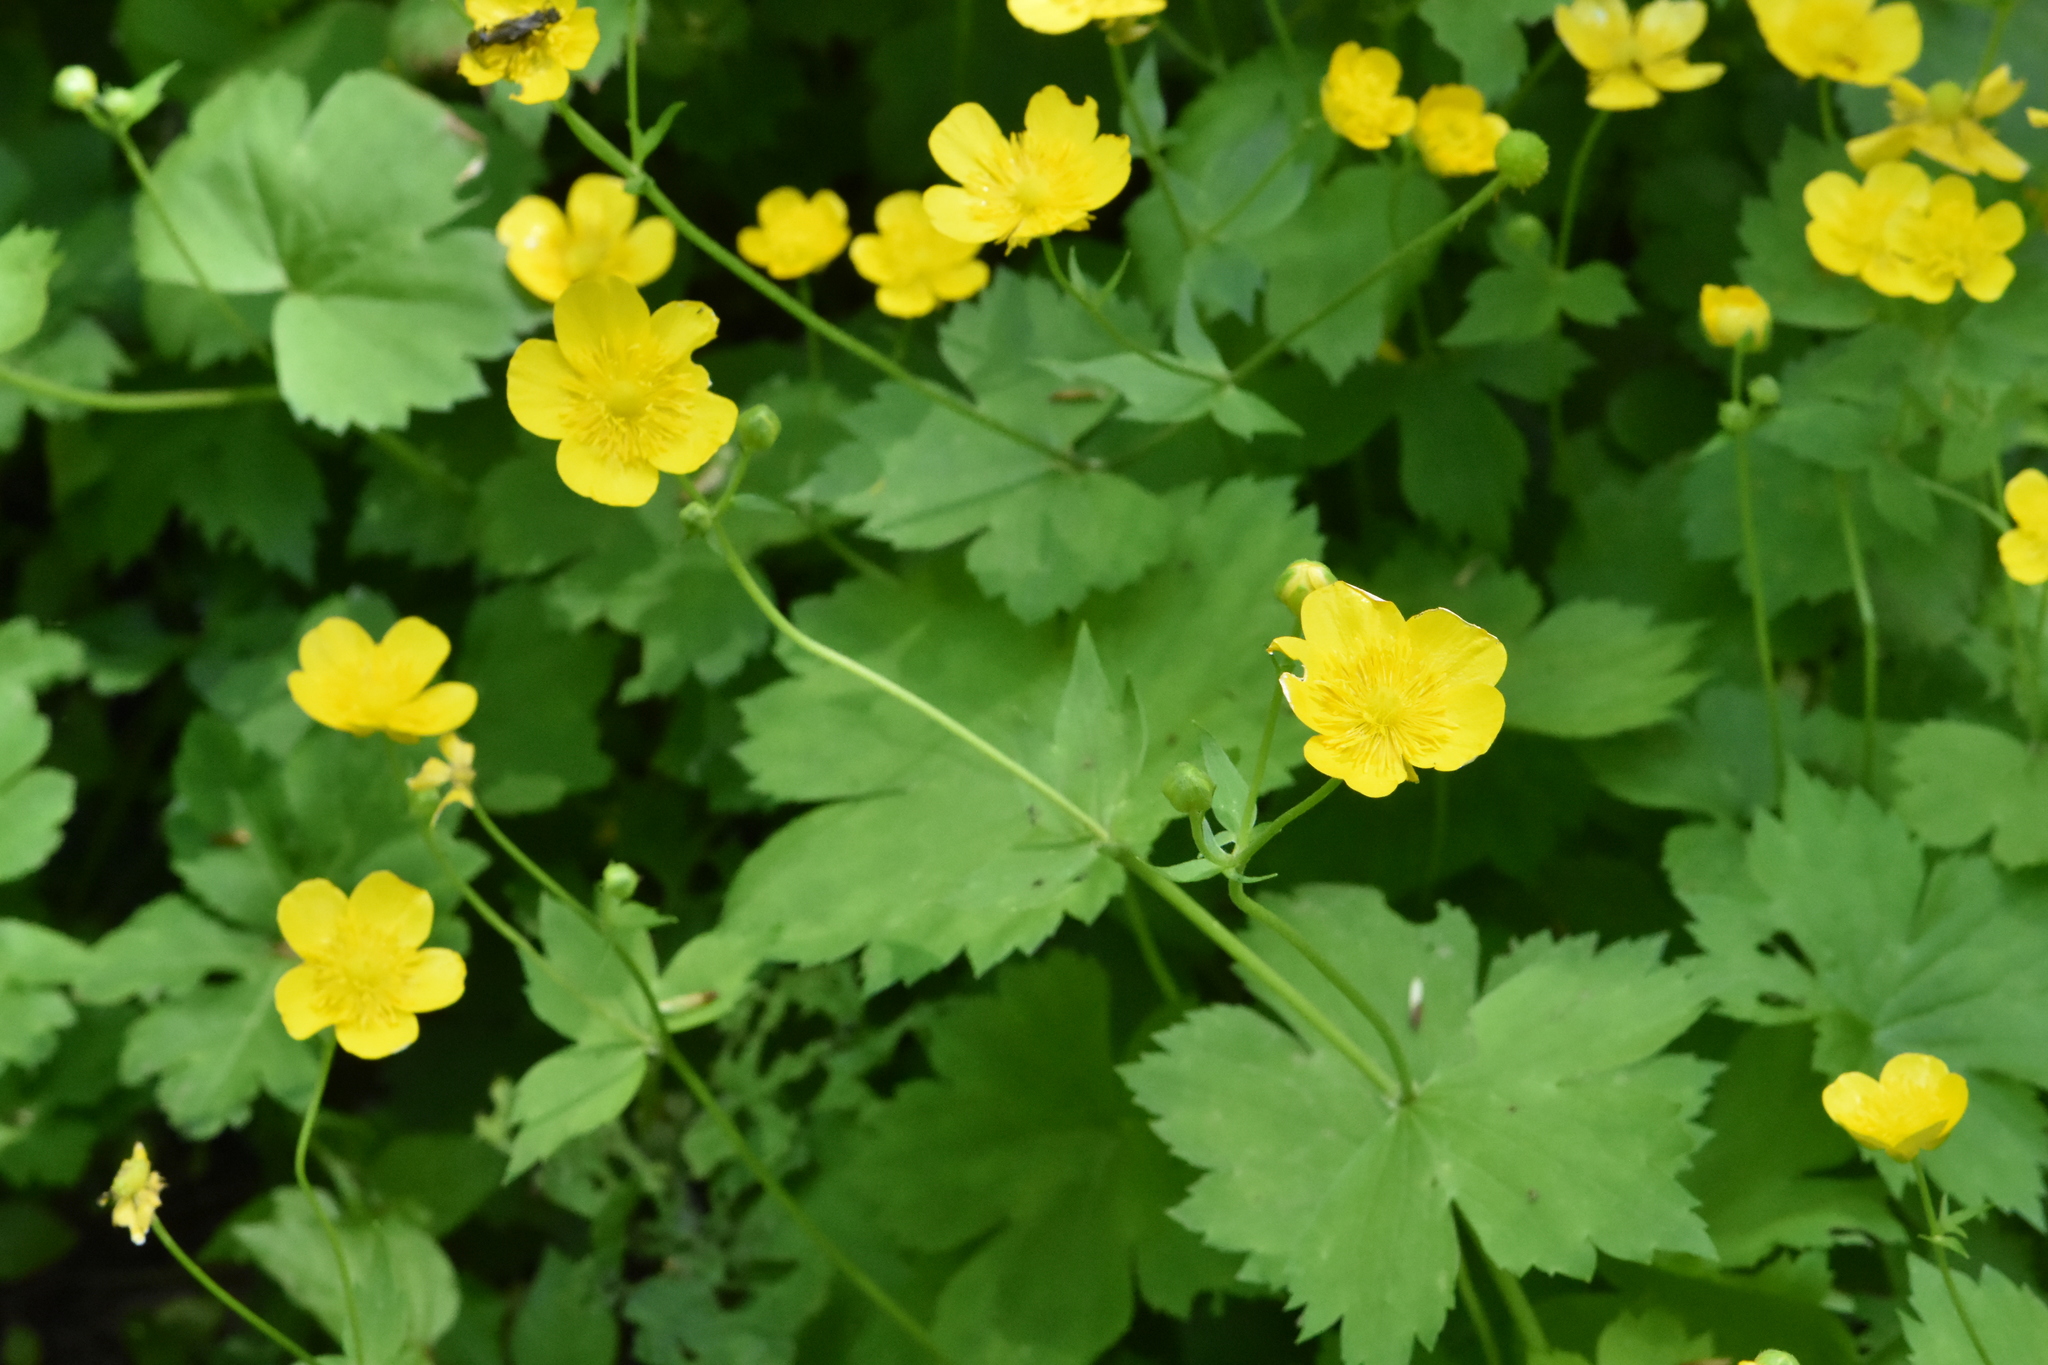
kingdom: Plantae
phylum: Tracheophyta
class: Magnoliopsida
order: Ranunculales
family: Ranunculaceae
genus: Ranunculus
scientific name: Ranunculus lanuginosus
